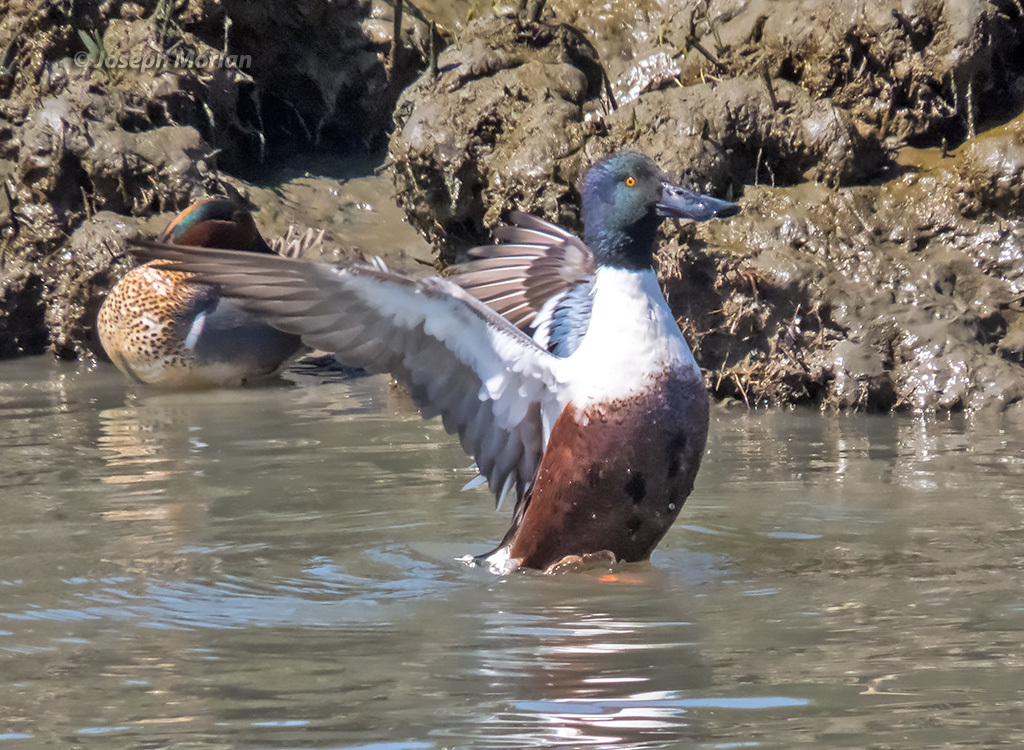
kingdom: Animalia
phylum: Chordata
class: Aves
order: Anseriformes
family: Anatidae
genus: Spatula
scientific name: Spatula clypeata
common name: Northern shoveler
